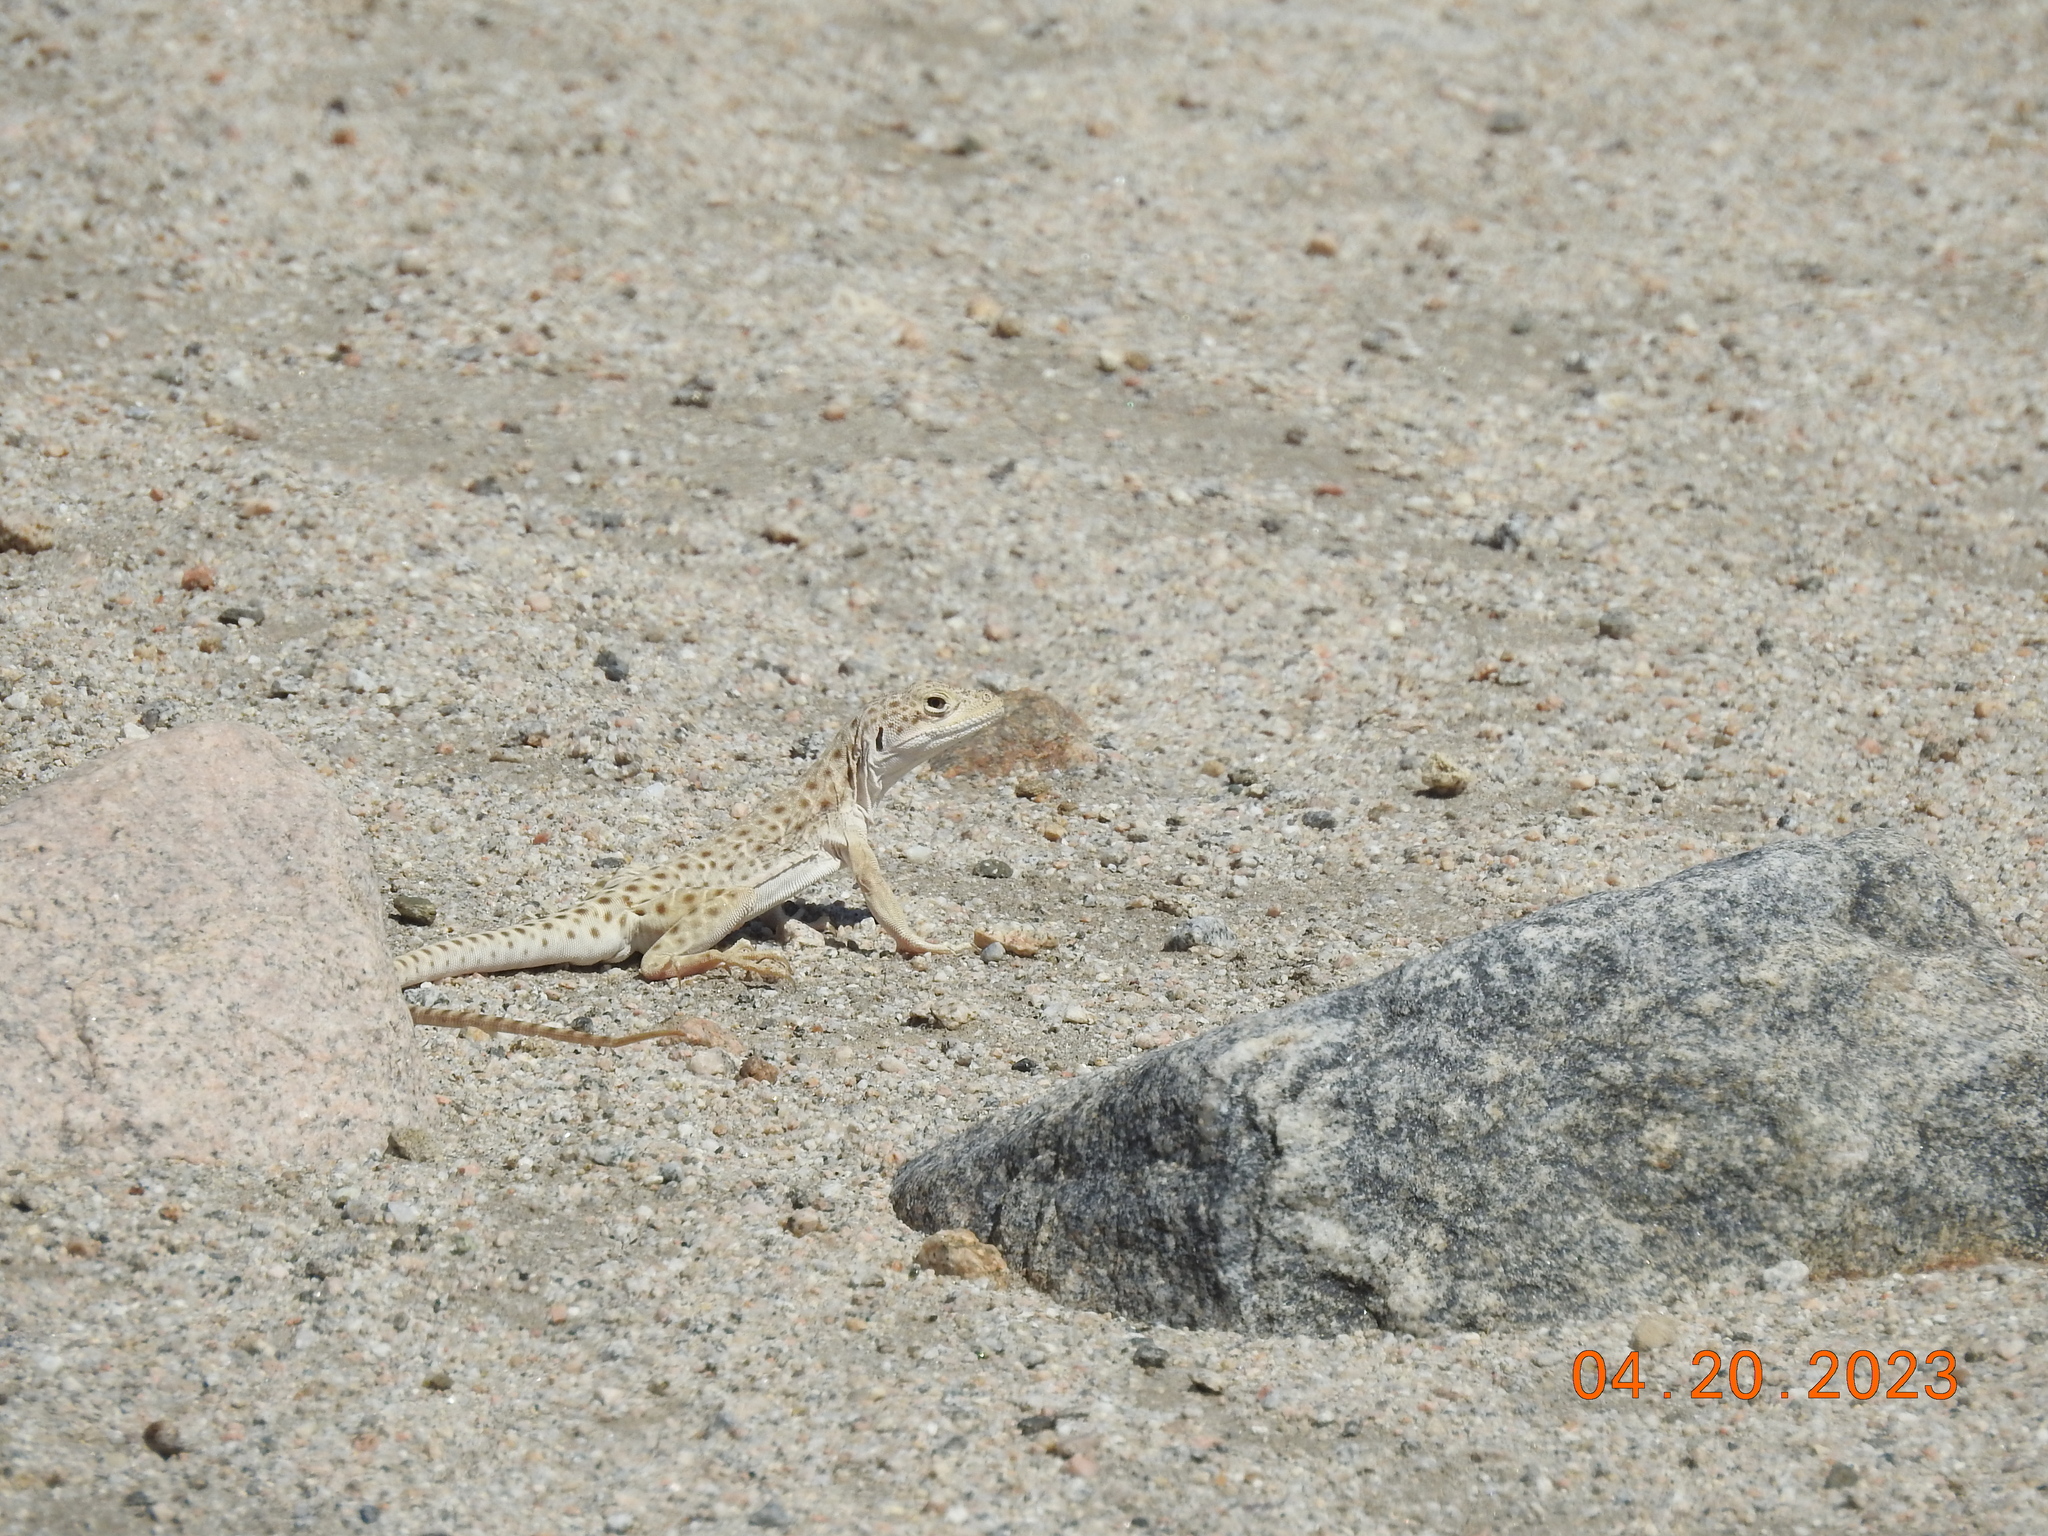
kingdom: Animalia
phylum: Chordata
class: Squamata
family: Crotaphytidae
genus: Gambelia
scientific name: Gambelia wislizenii
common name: Longnose leopard lizard
